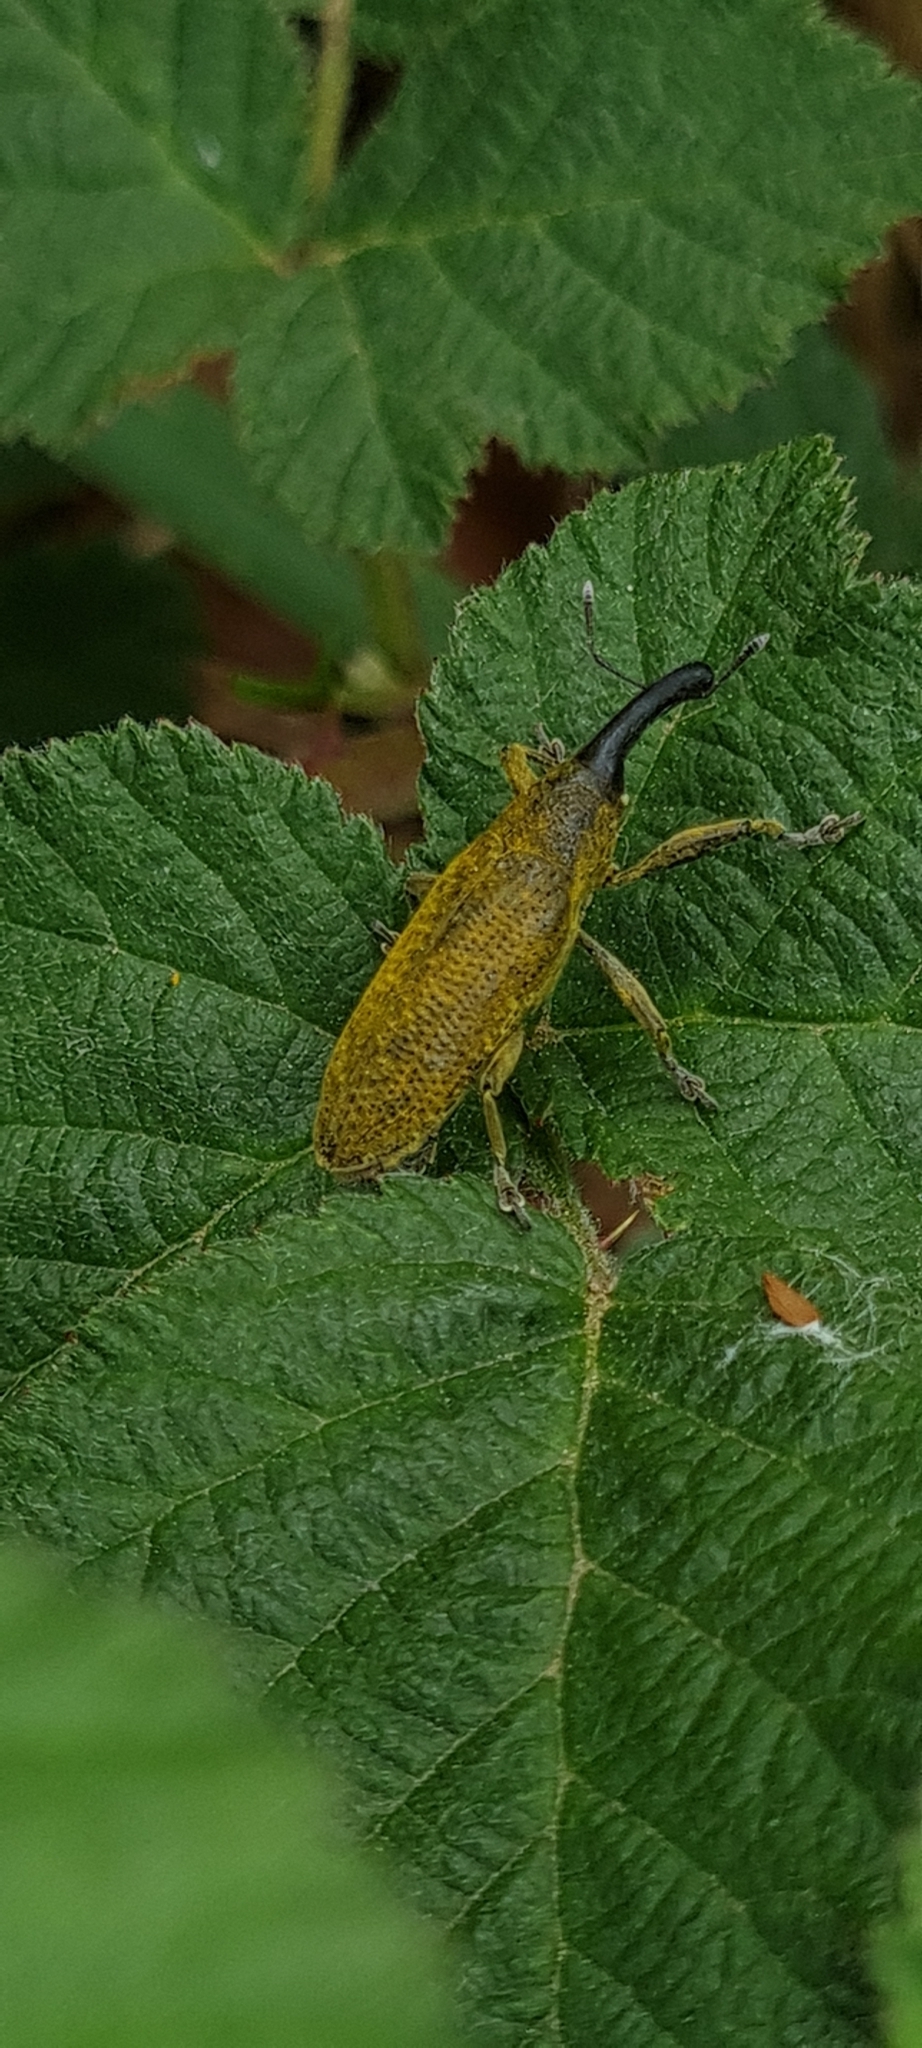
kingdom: Animalia
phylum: Arthropoda
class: Insecta
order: Coleoptera
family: Curculionidae
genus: Lixus
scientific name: Lixus pulverulentus
